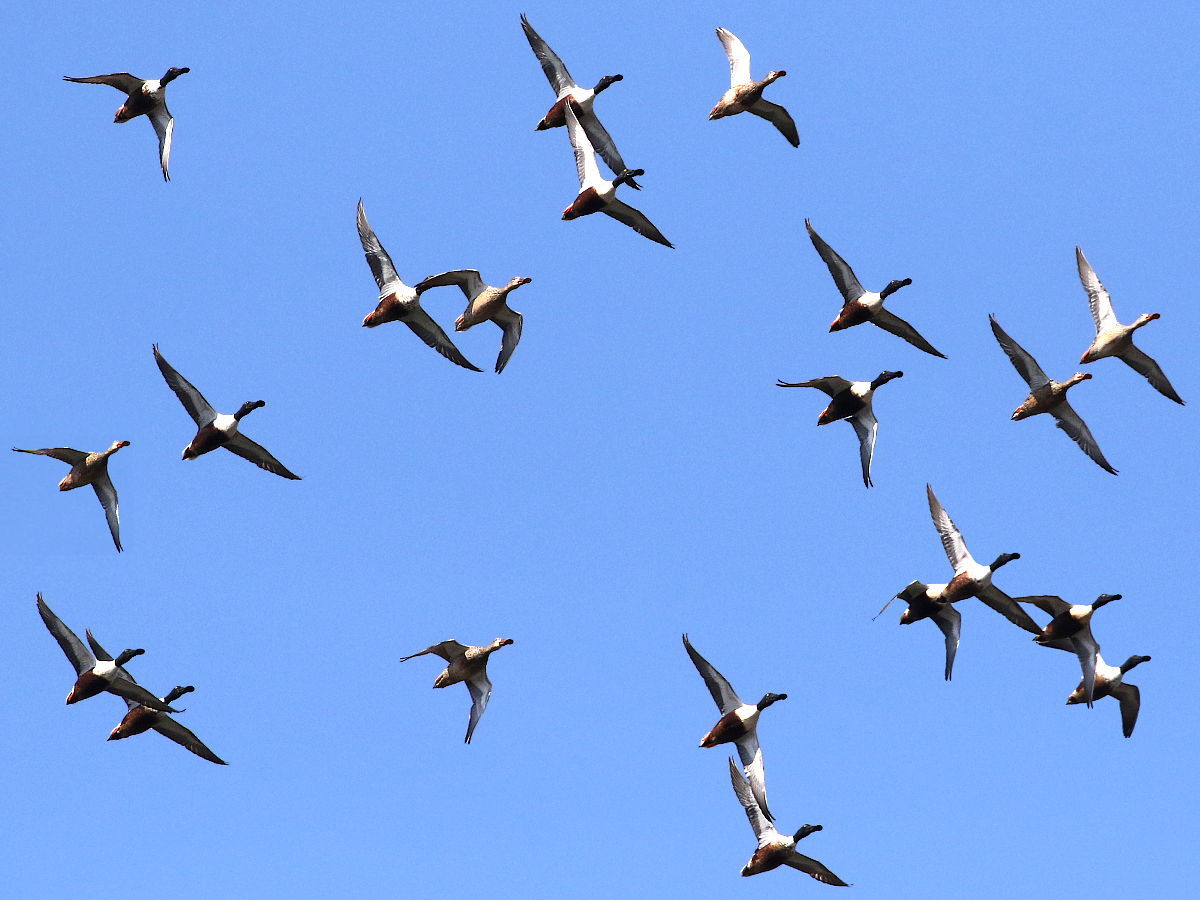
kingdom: Animalia
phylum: Chordata
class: Aves
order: Anseriformes
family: Anatidae
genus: Spatula
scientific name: Spatula clypeata
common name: Northern shoveler
